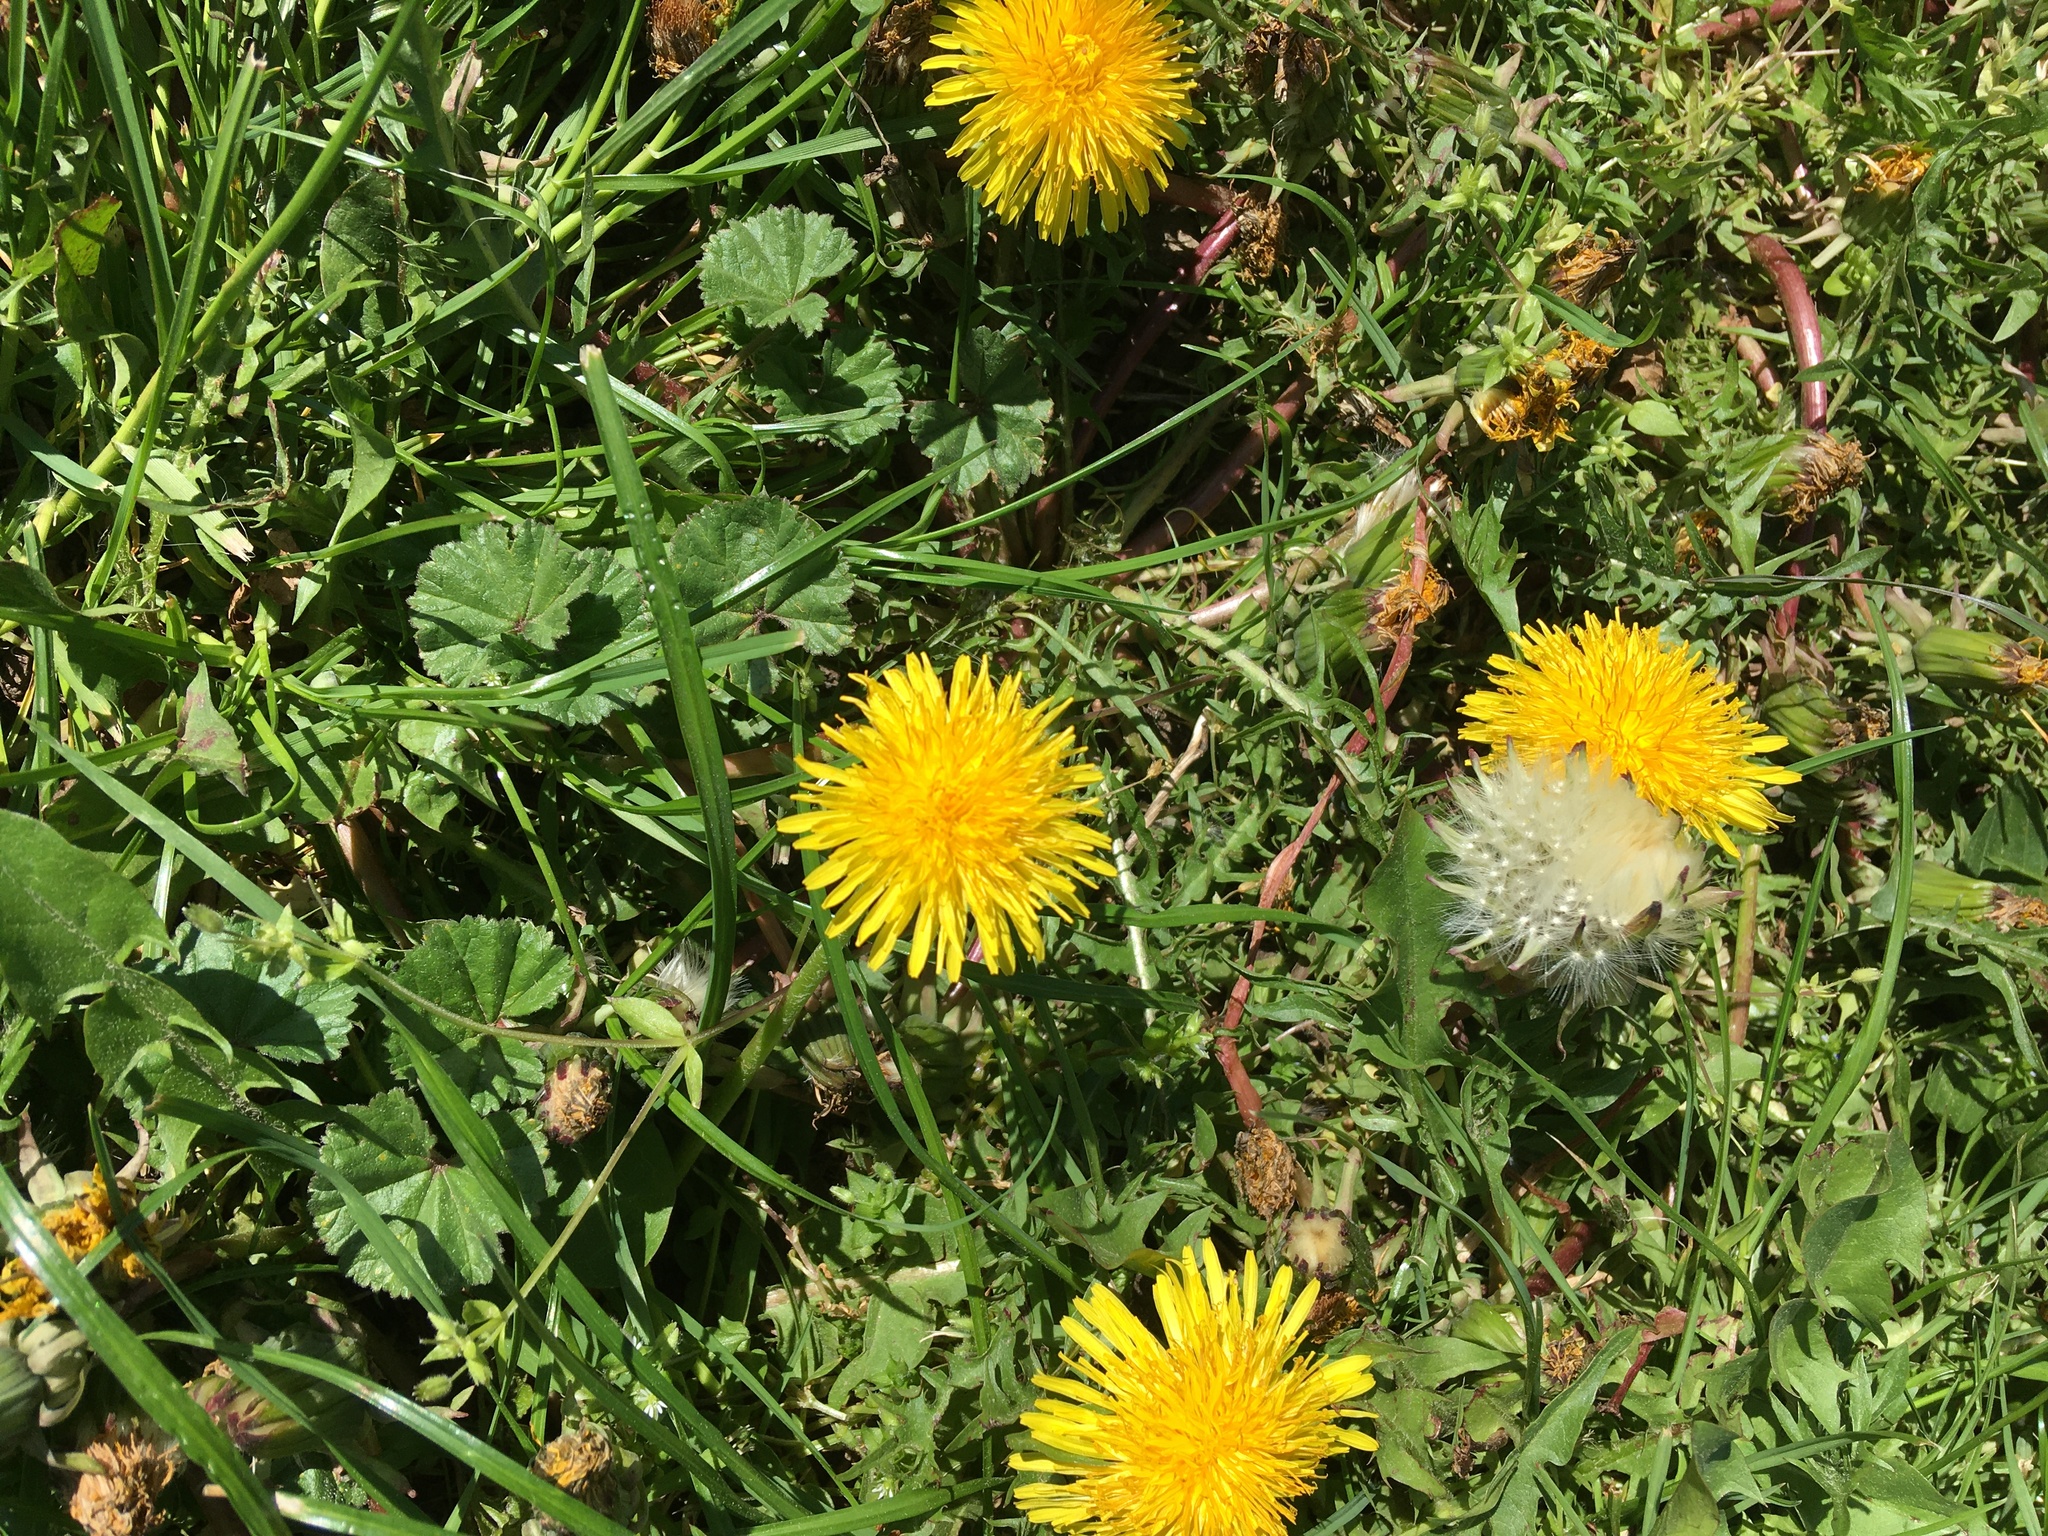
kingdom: Plantae
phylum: Tracheophyta
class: Magnoliopsida
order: Asterales
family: Asteraceae
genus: Taraxacum
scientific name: Taraxacum officinale
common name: Common dandelion
